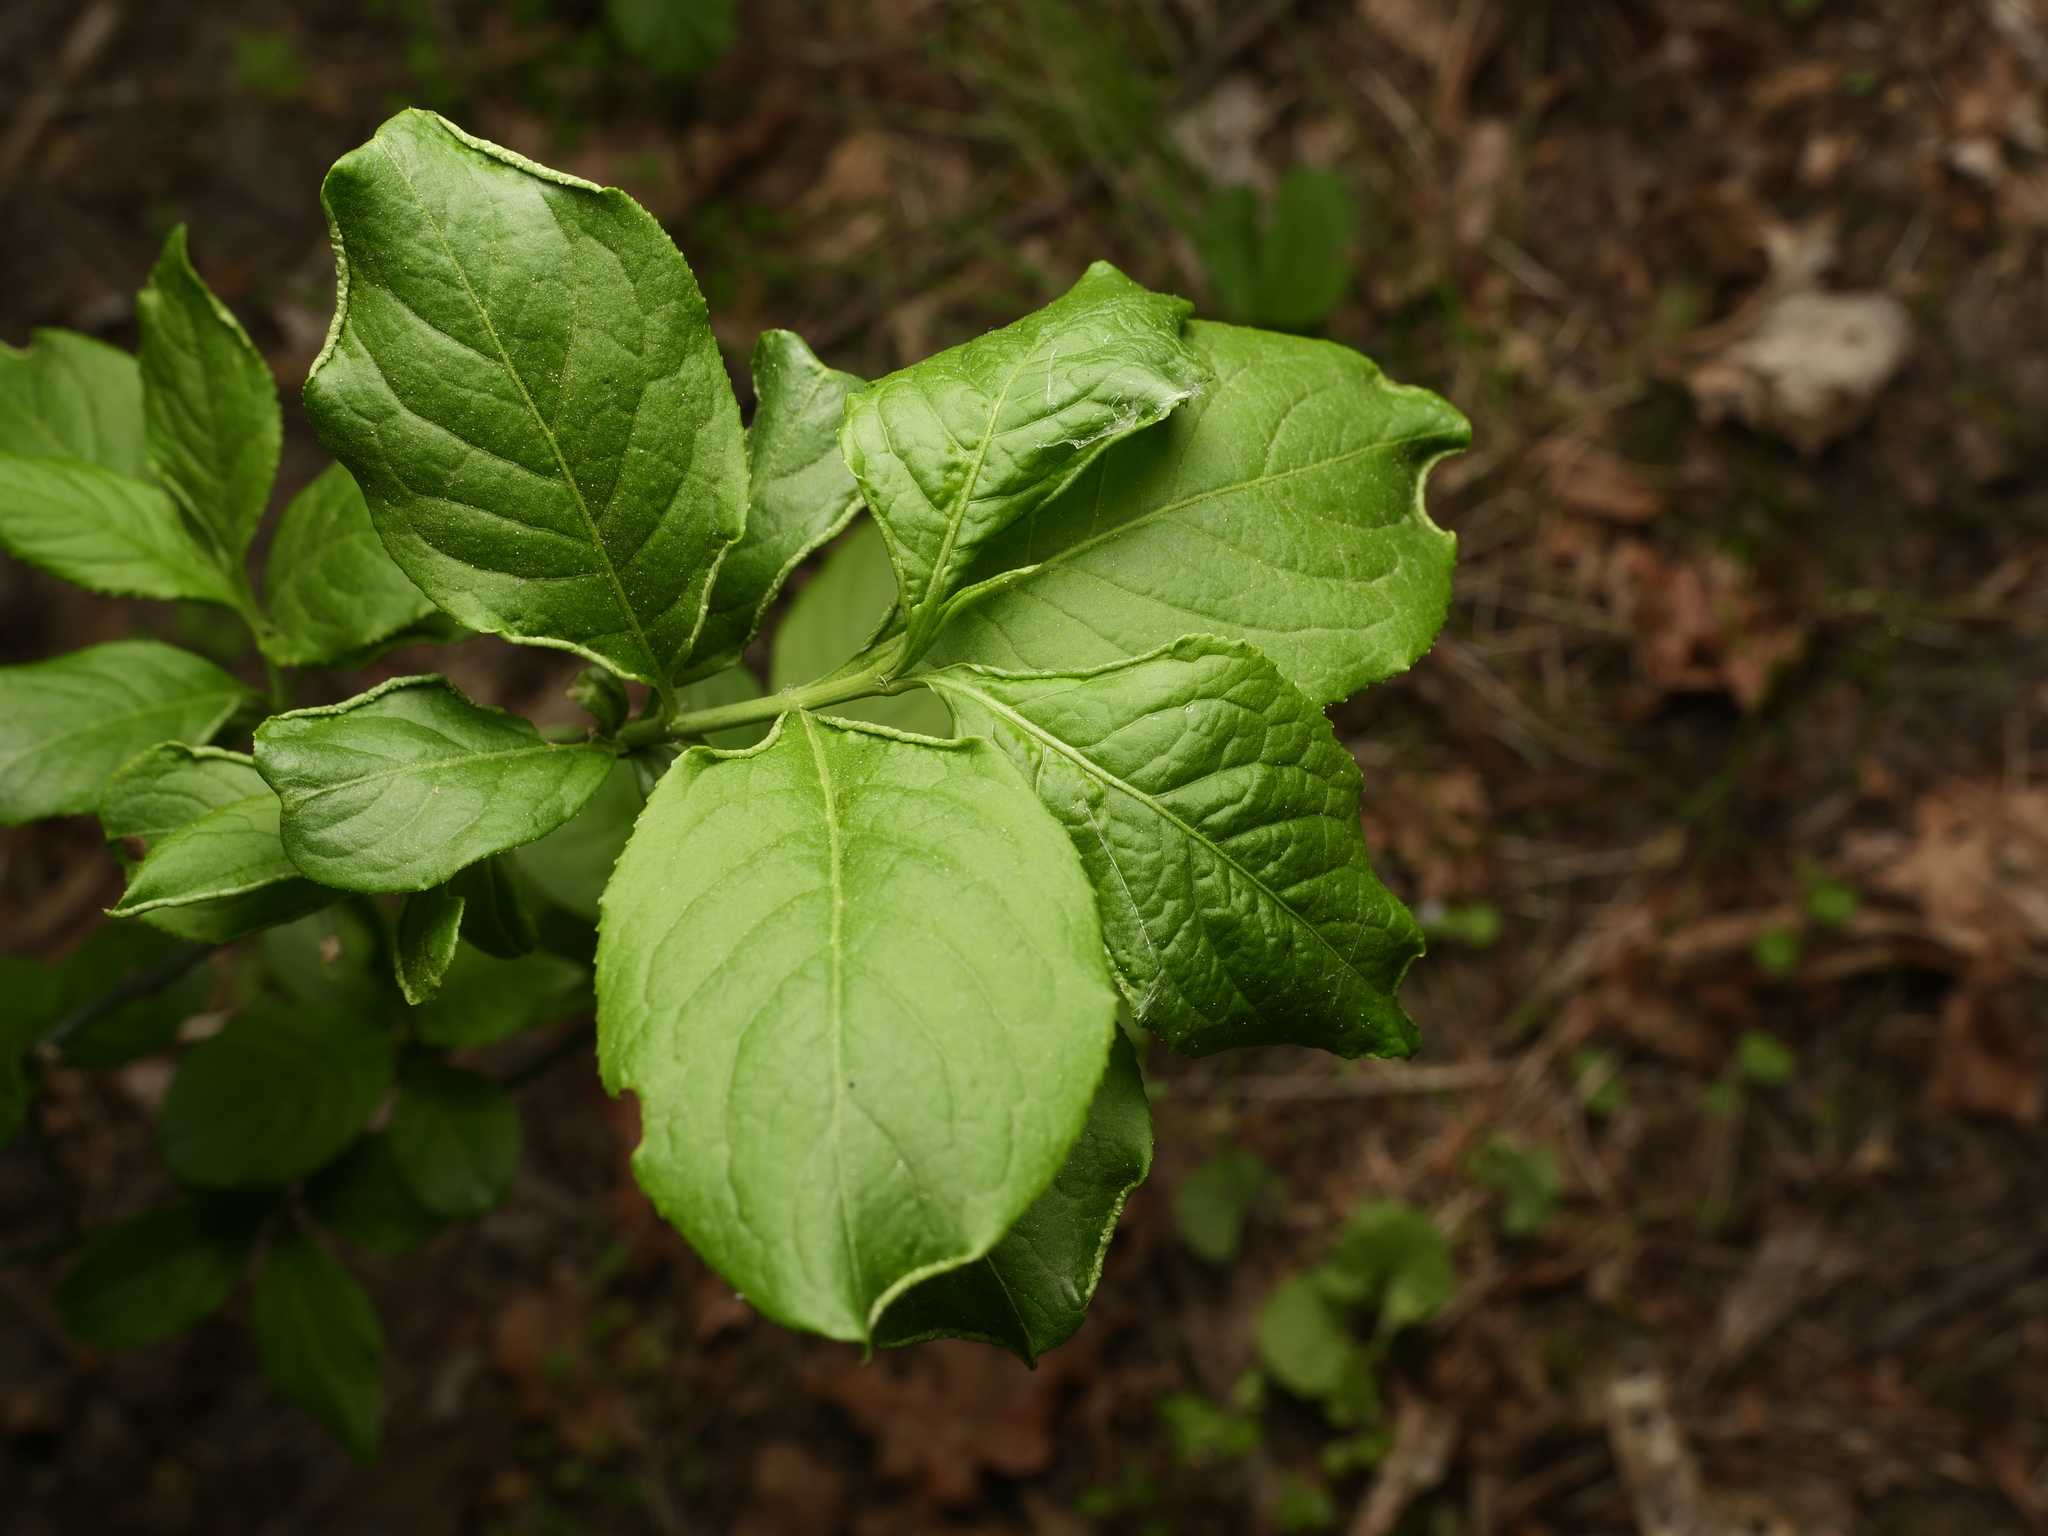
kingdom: Plantae
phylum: Tracheophyta
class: Magnoliopsida
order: Celastrales
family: Celastraceae
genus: Euonymus
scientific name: Euonymus europaeus
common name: Spindle
